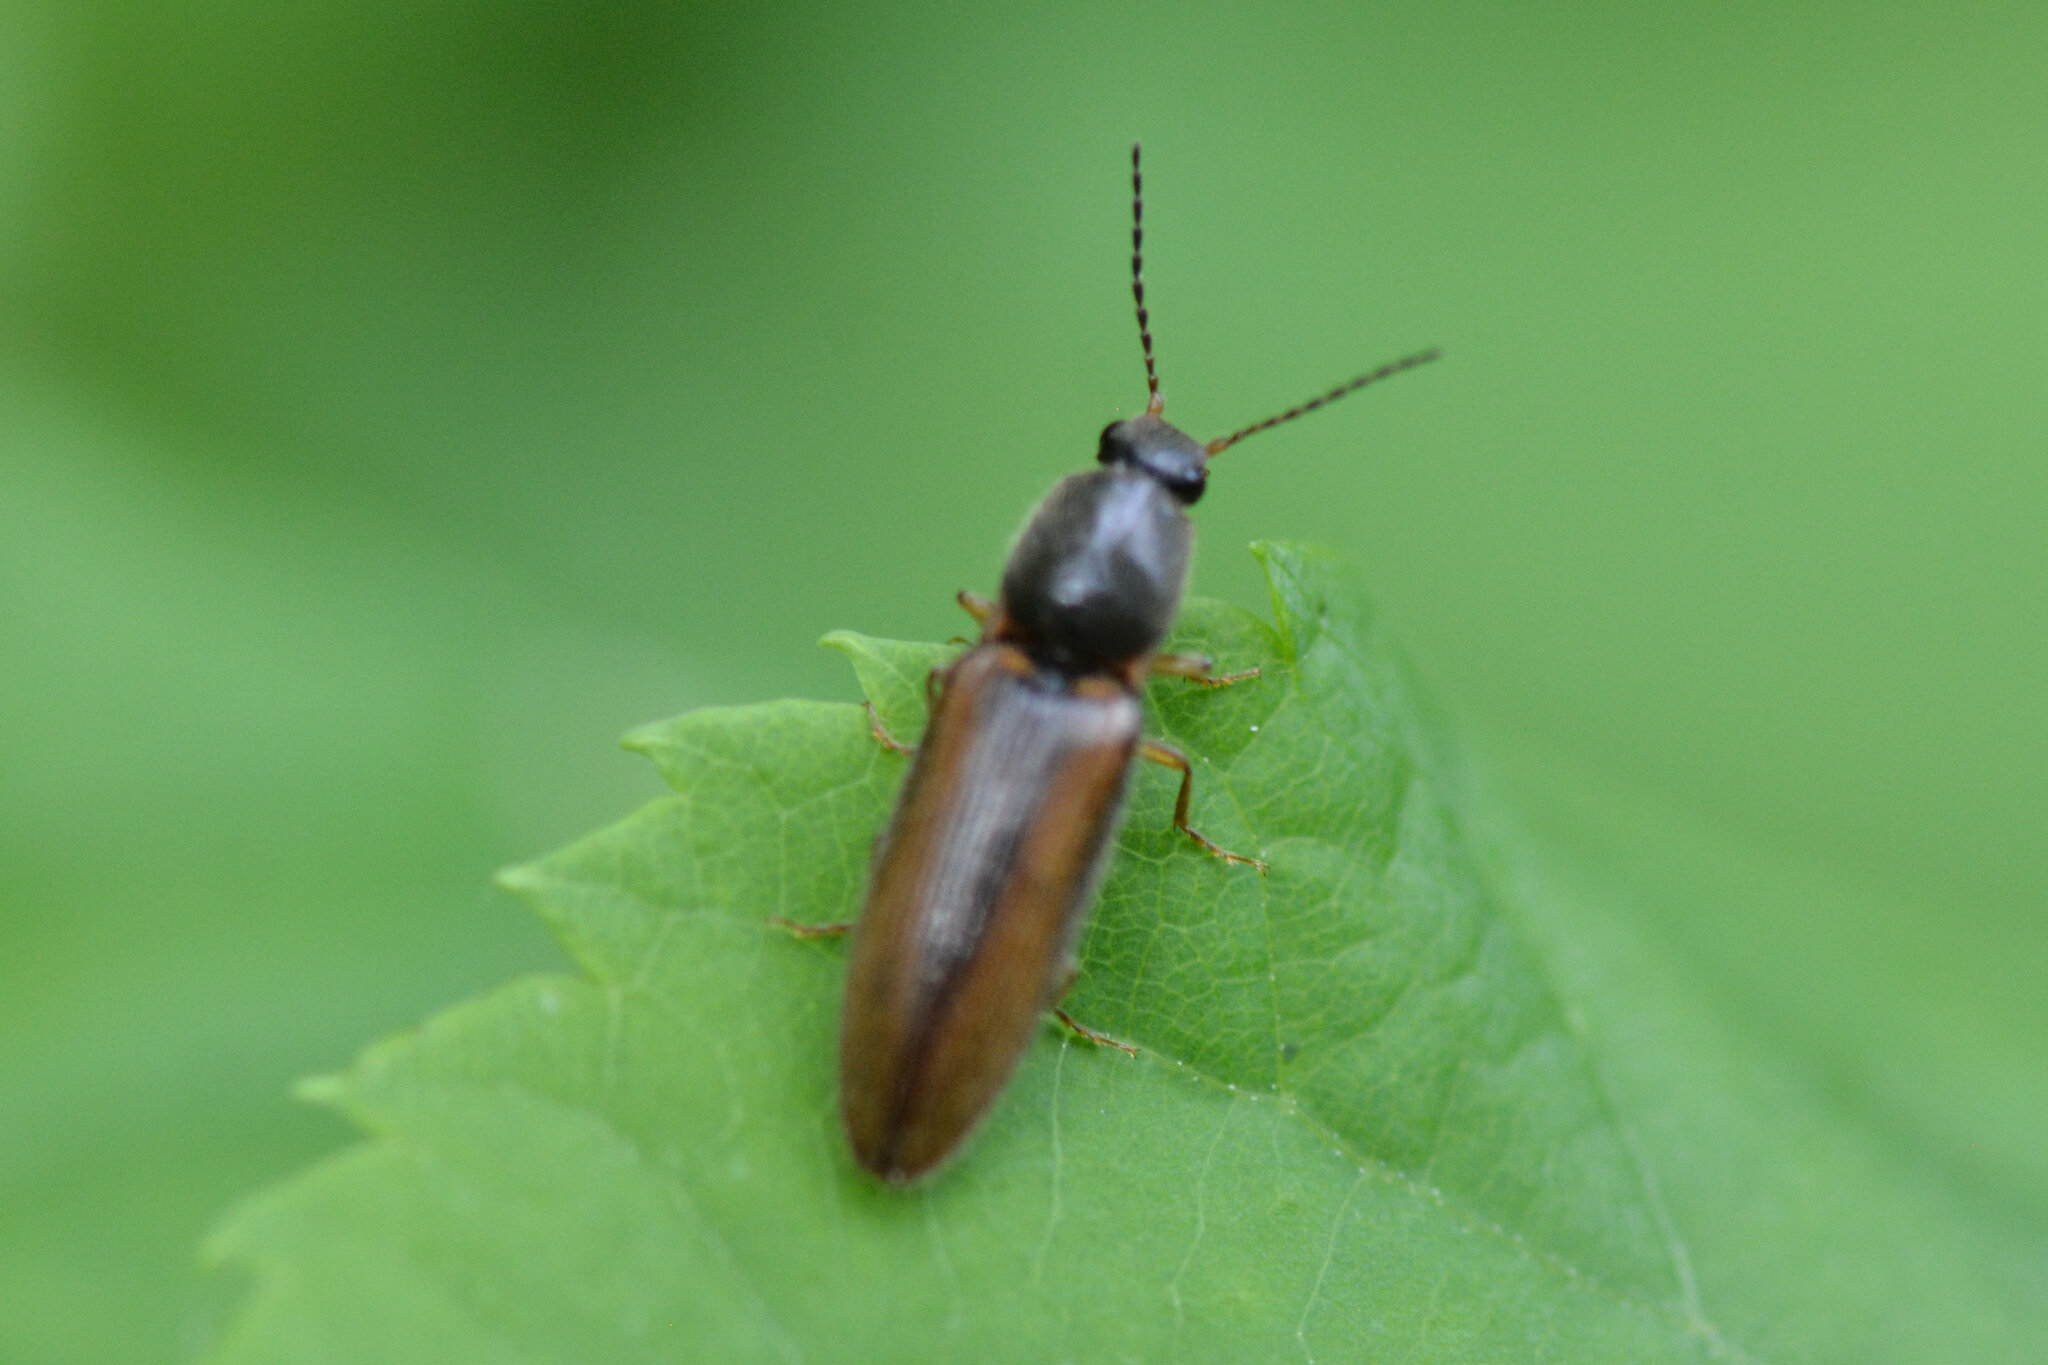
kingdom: Animalia
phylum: Arthropoda
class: Insecta
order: Coleoptera
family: Elateridae
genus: Athous
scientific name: Athous vittatus
